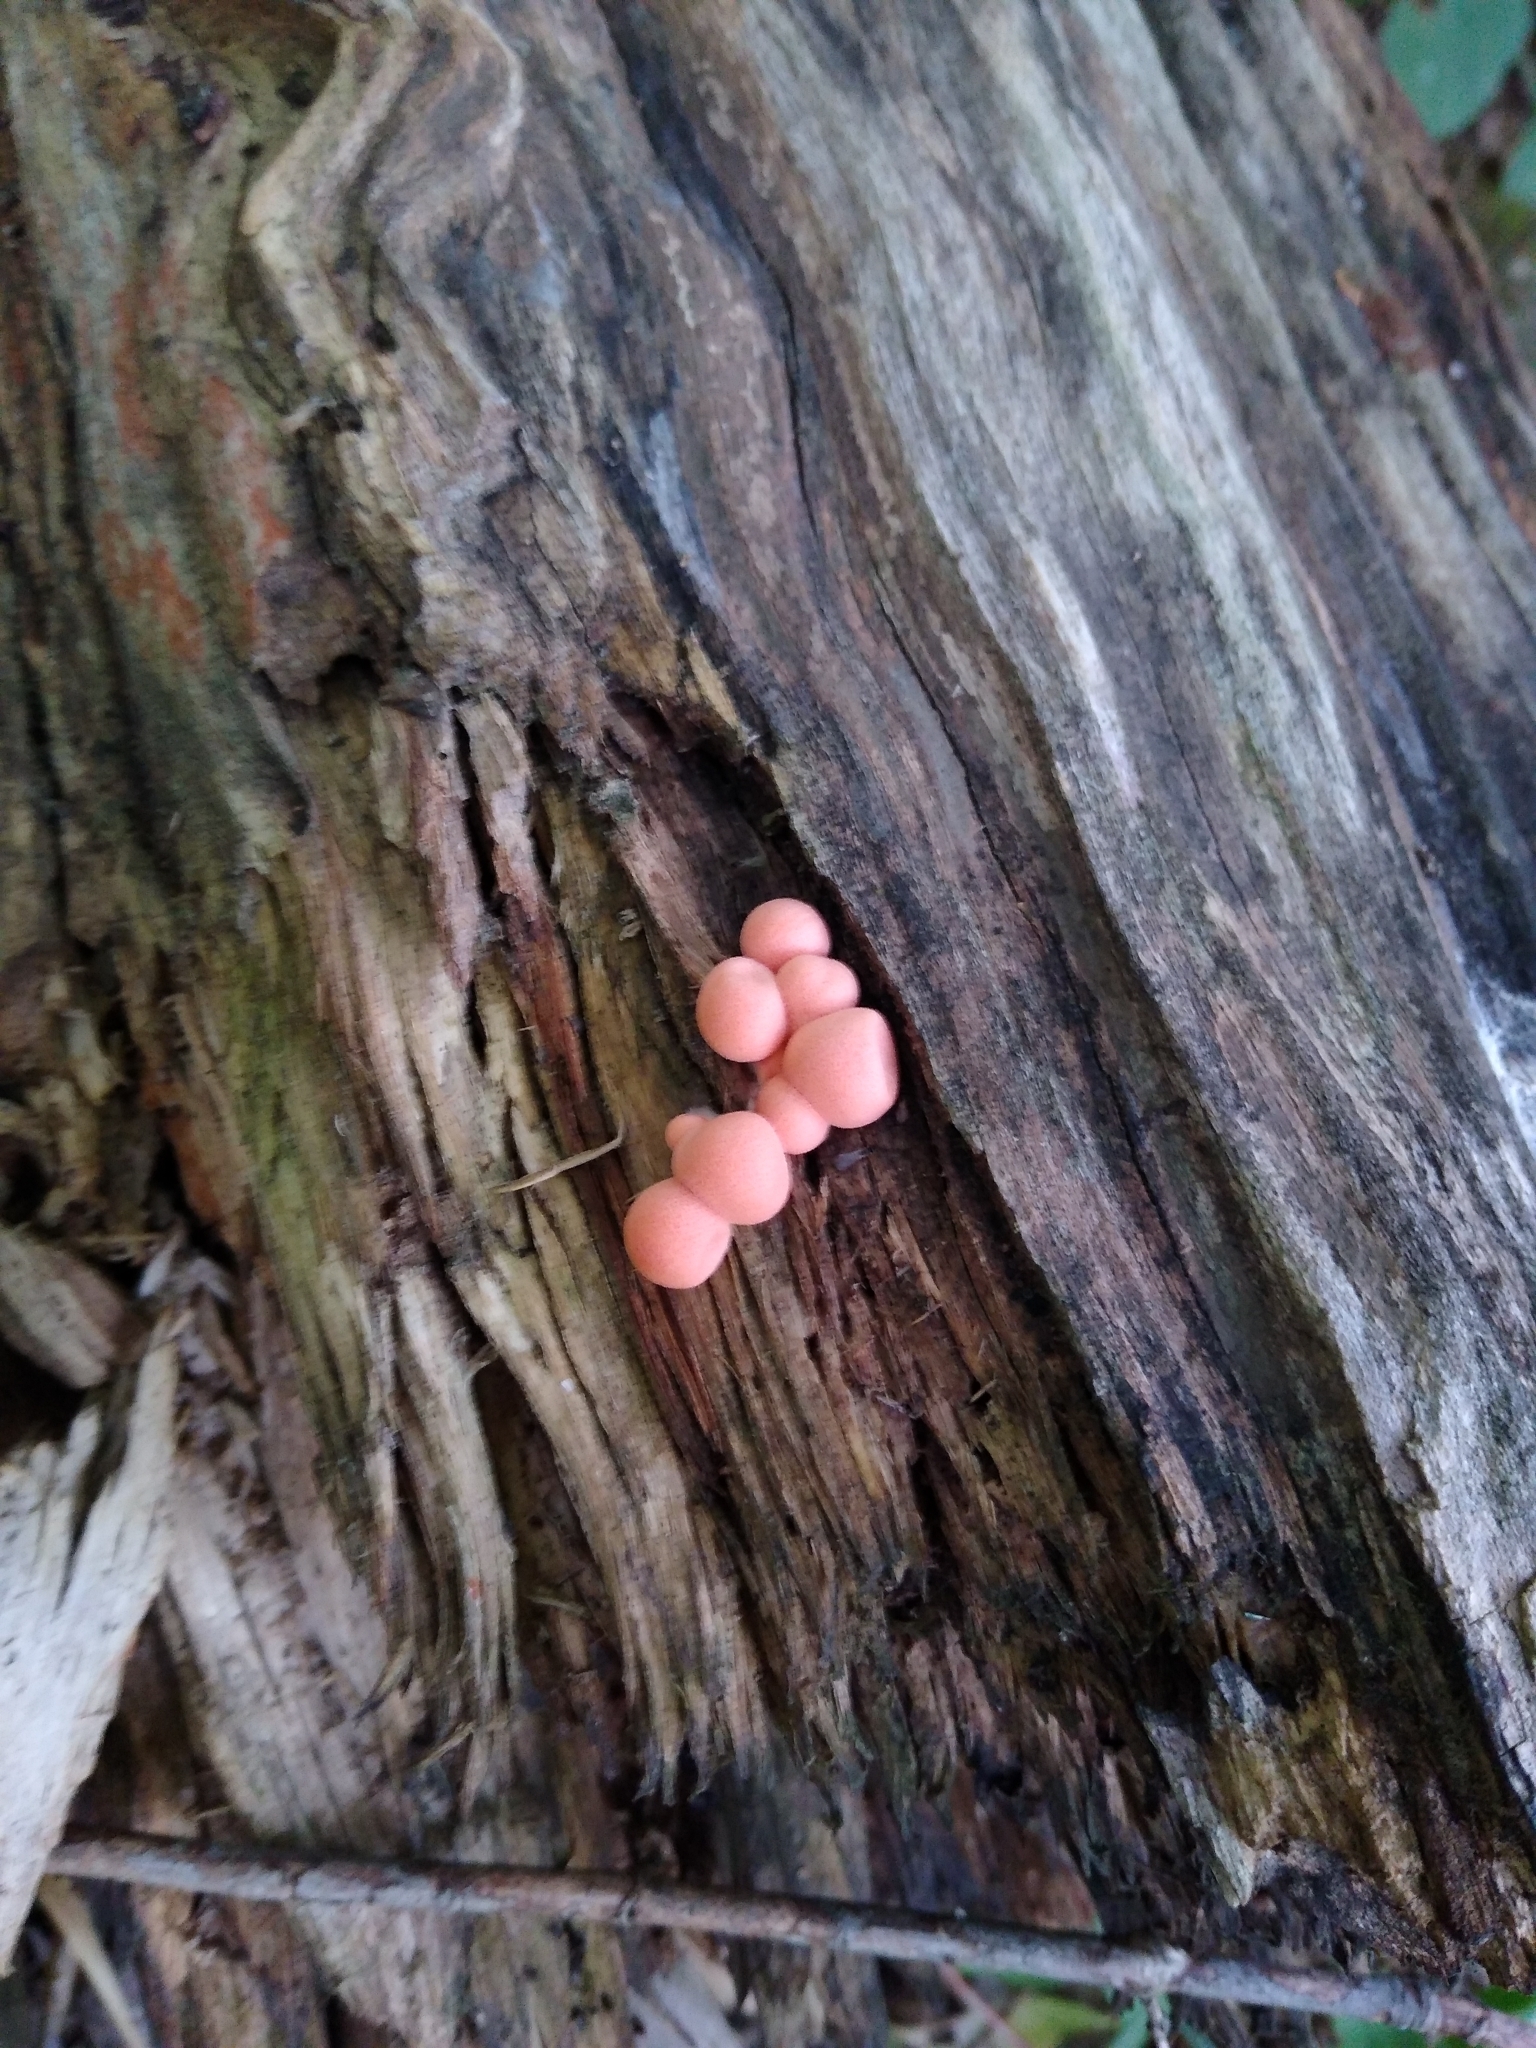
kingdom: Protozoa
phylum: Mycetozoa
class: Myxomycetes
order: Cribrariales
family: Tubiferaceae
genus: Lycogala
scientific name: Lycogala epidendrum
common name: Wolf's milk
